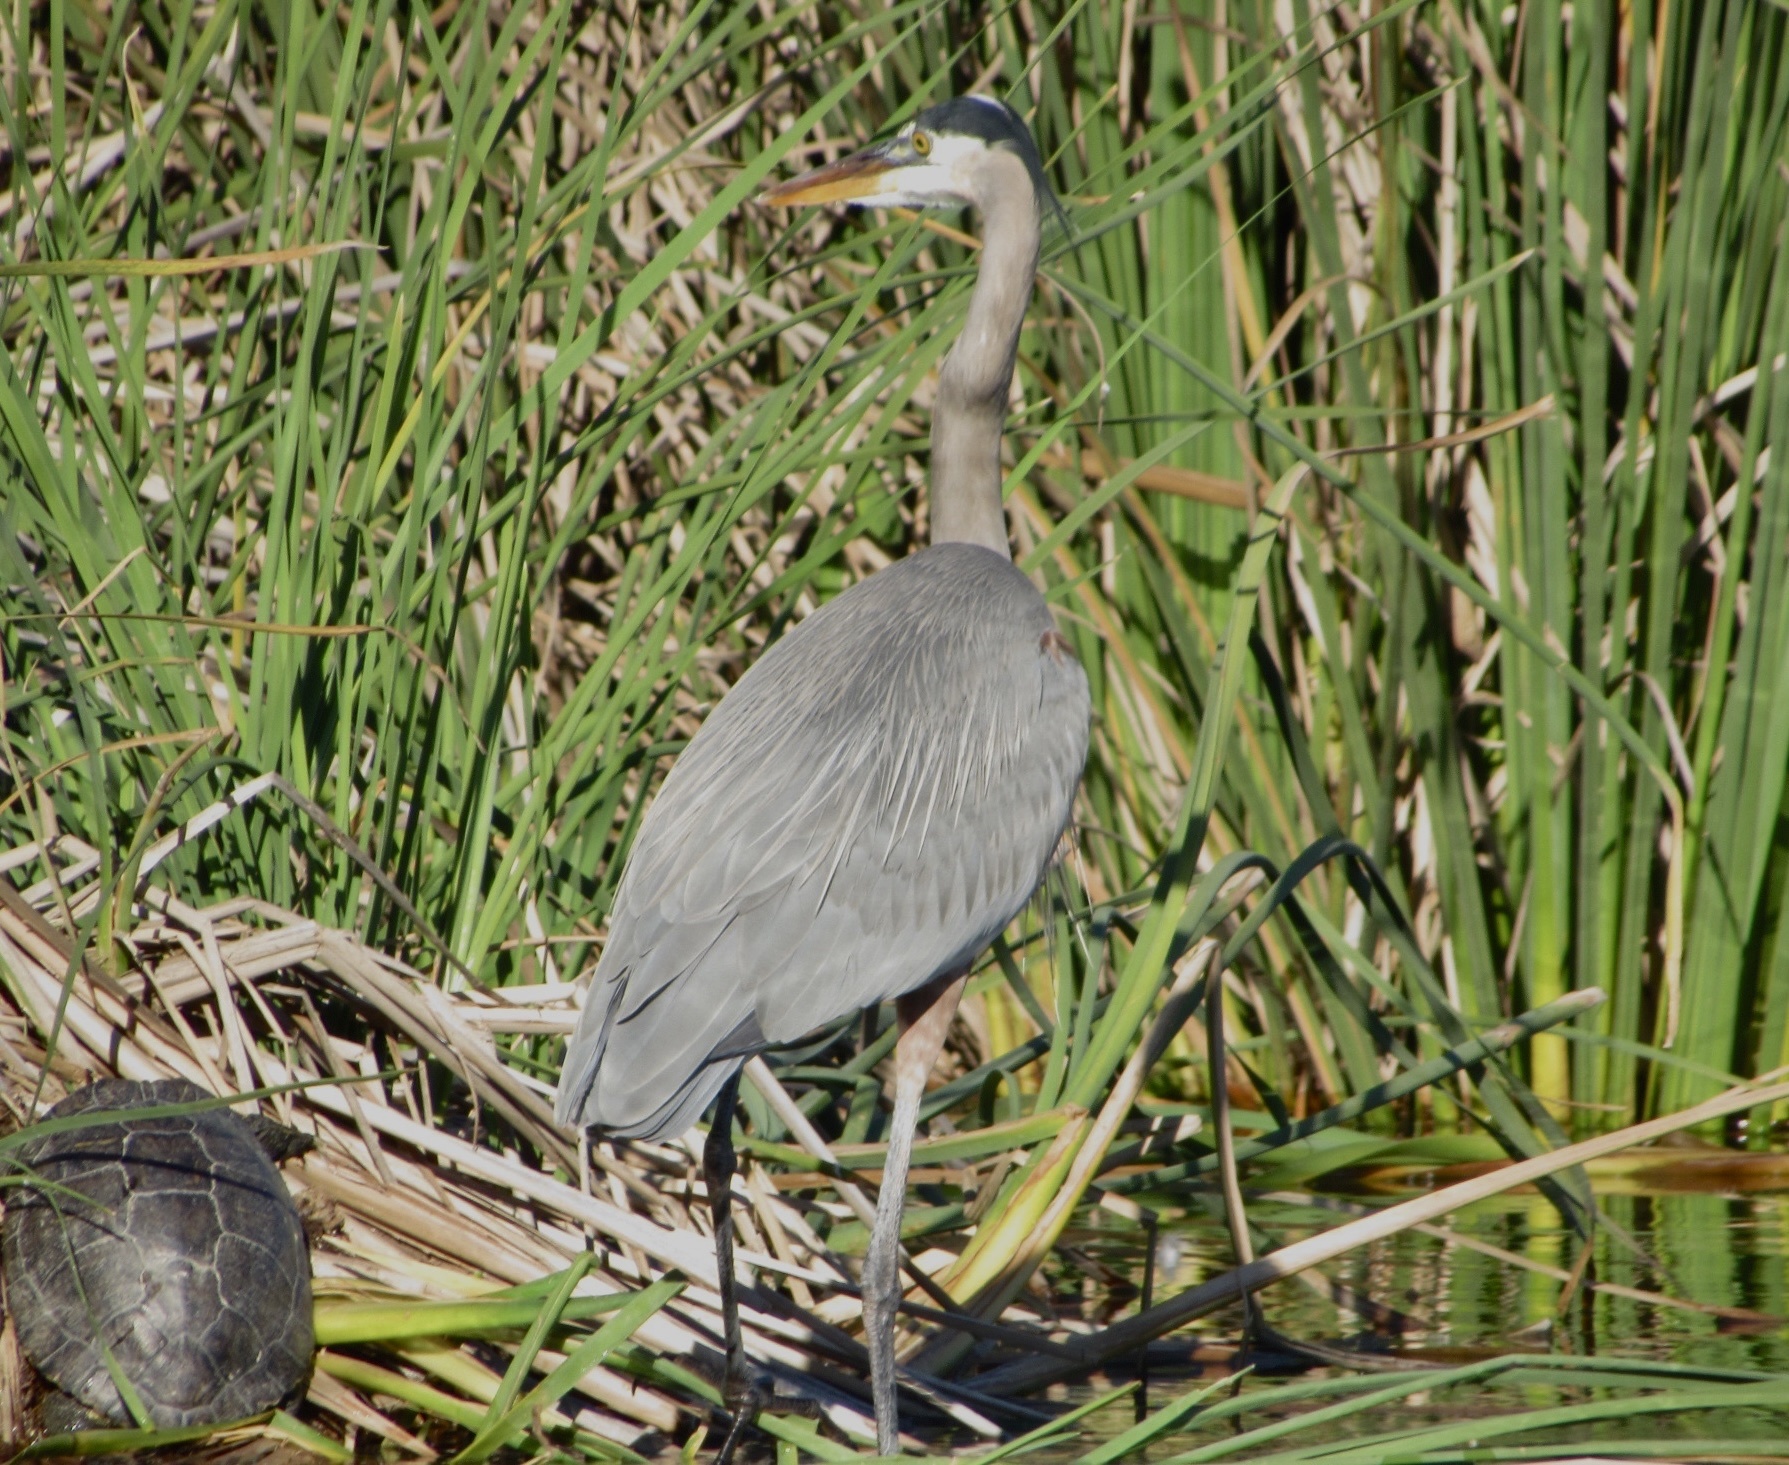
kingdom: Animalia
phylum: Chordata
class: Aves
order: Pelecaniformes
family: Ardeidae
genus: Ardea
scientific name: Ardea herodias
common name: Great blue heron
